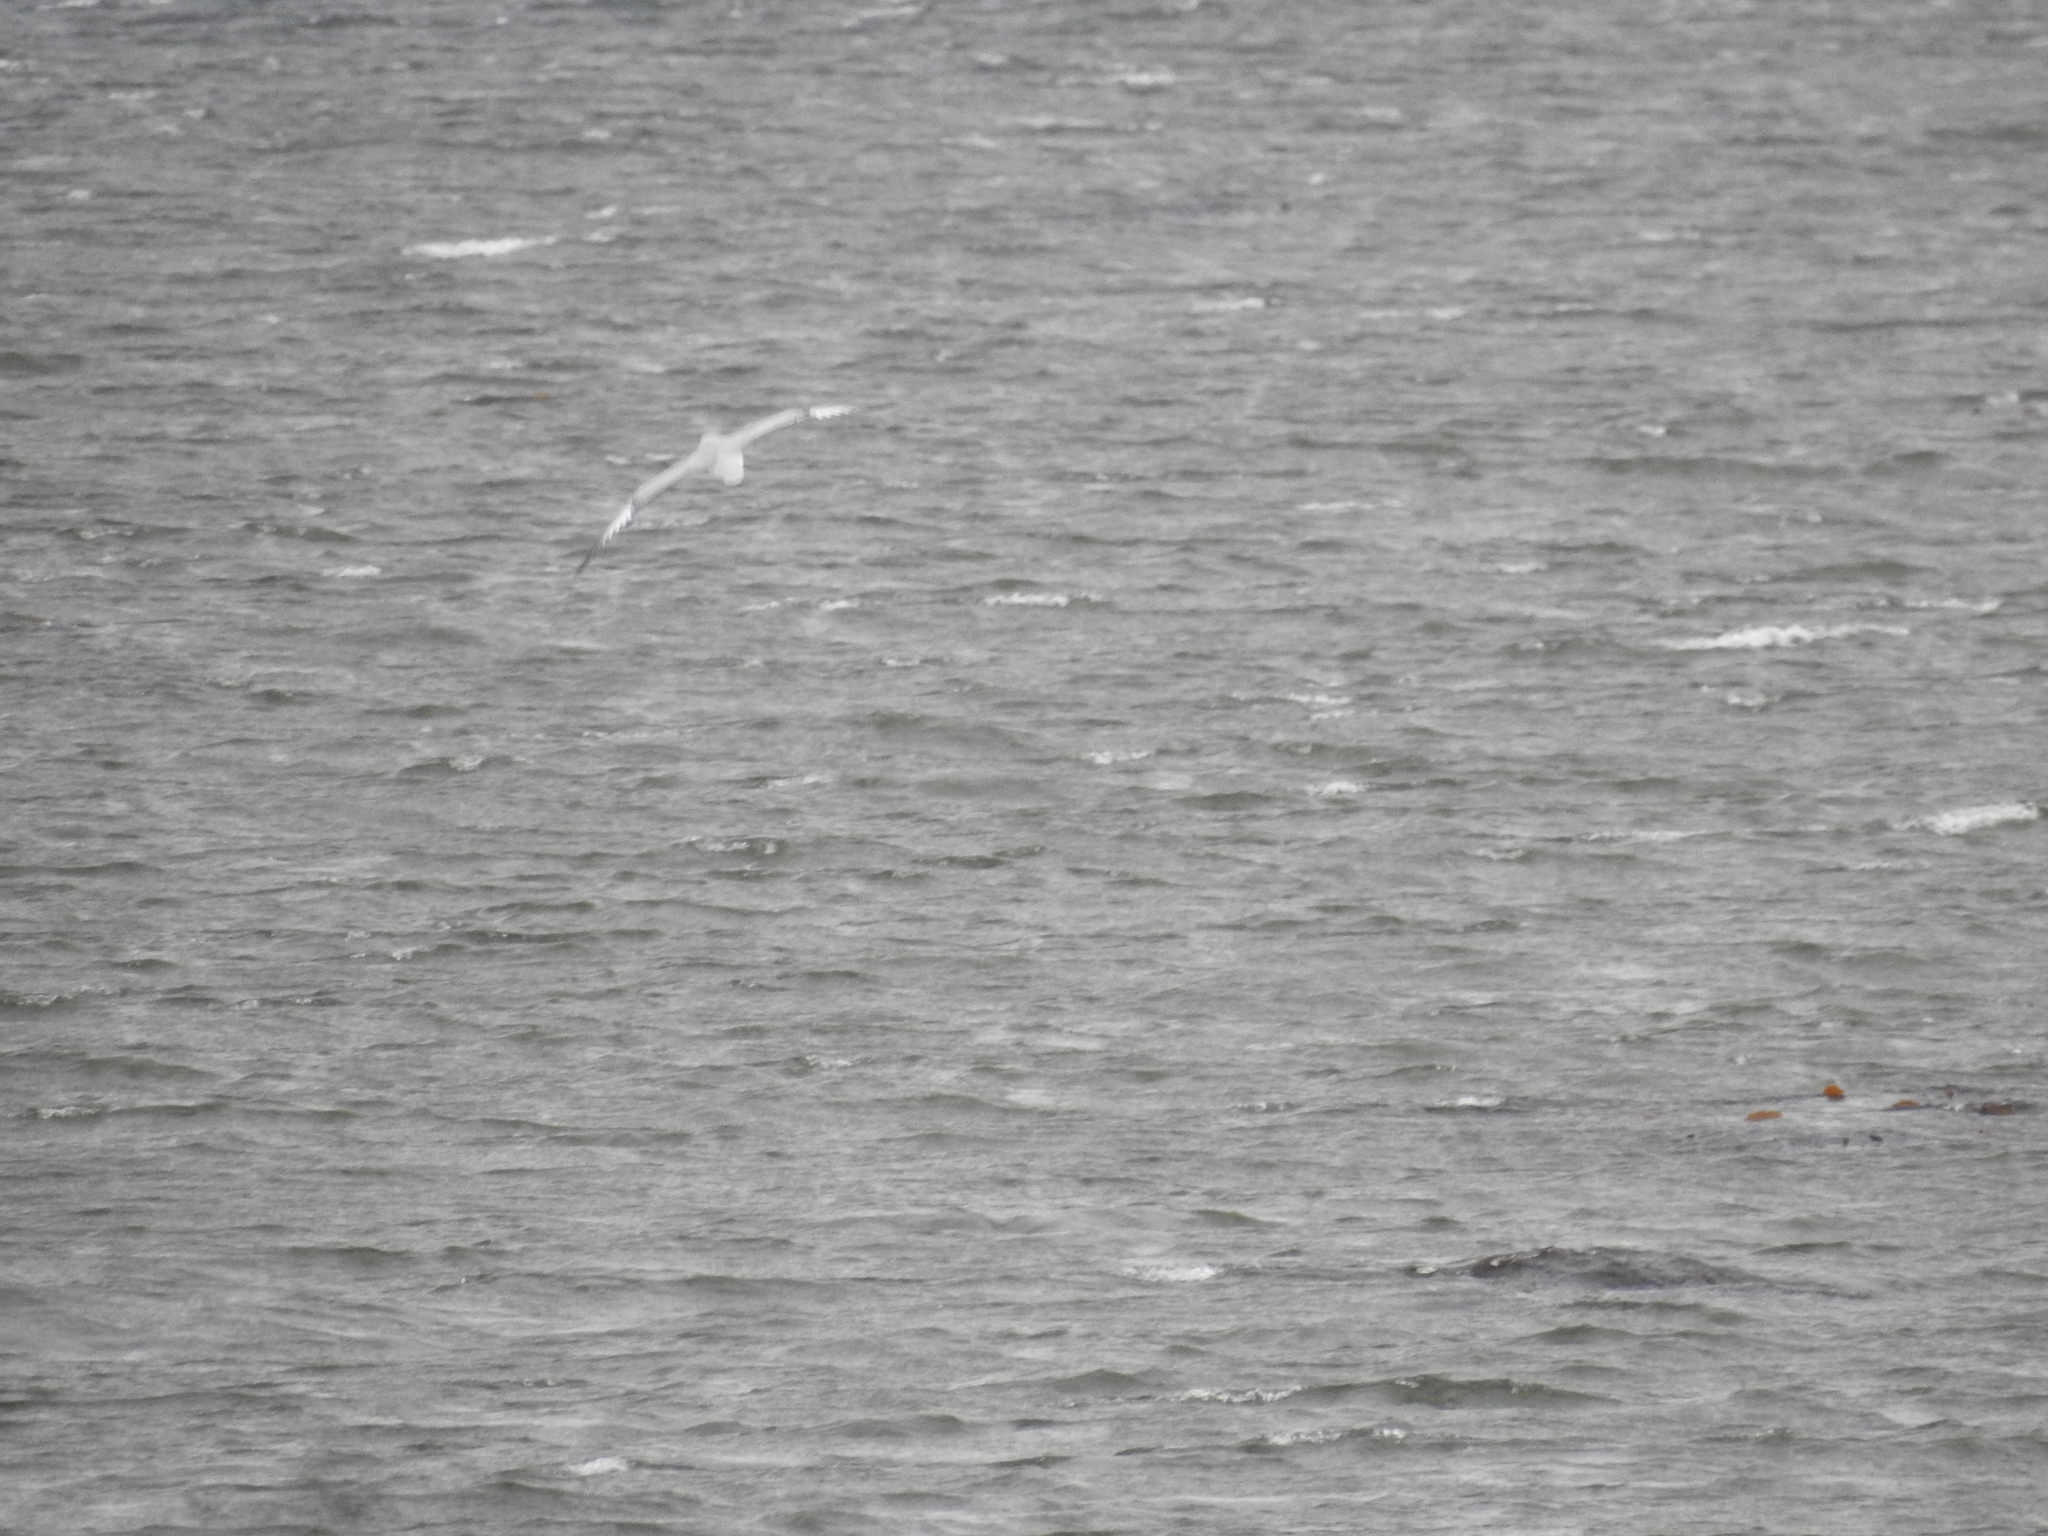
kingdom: Animalia
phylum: Chordata
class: Aves
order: Procellariiformes
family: Procellariidae
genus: Fulmarus
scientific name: Fulmarus glacialoides
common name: Southern fulmar
